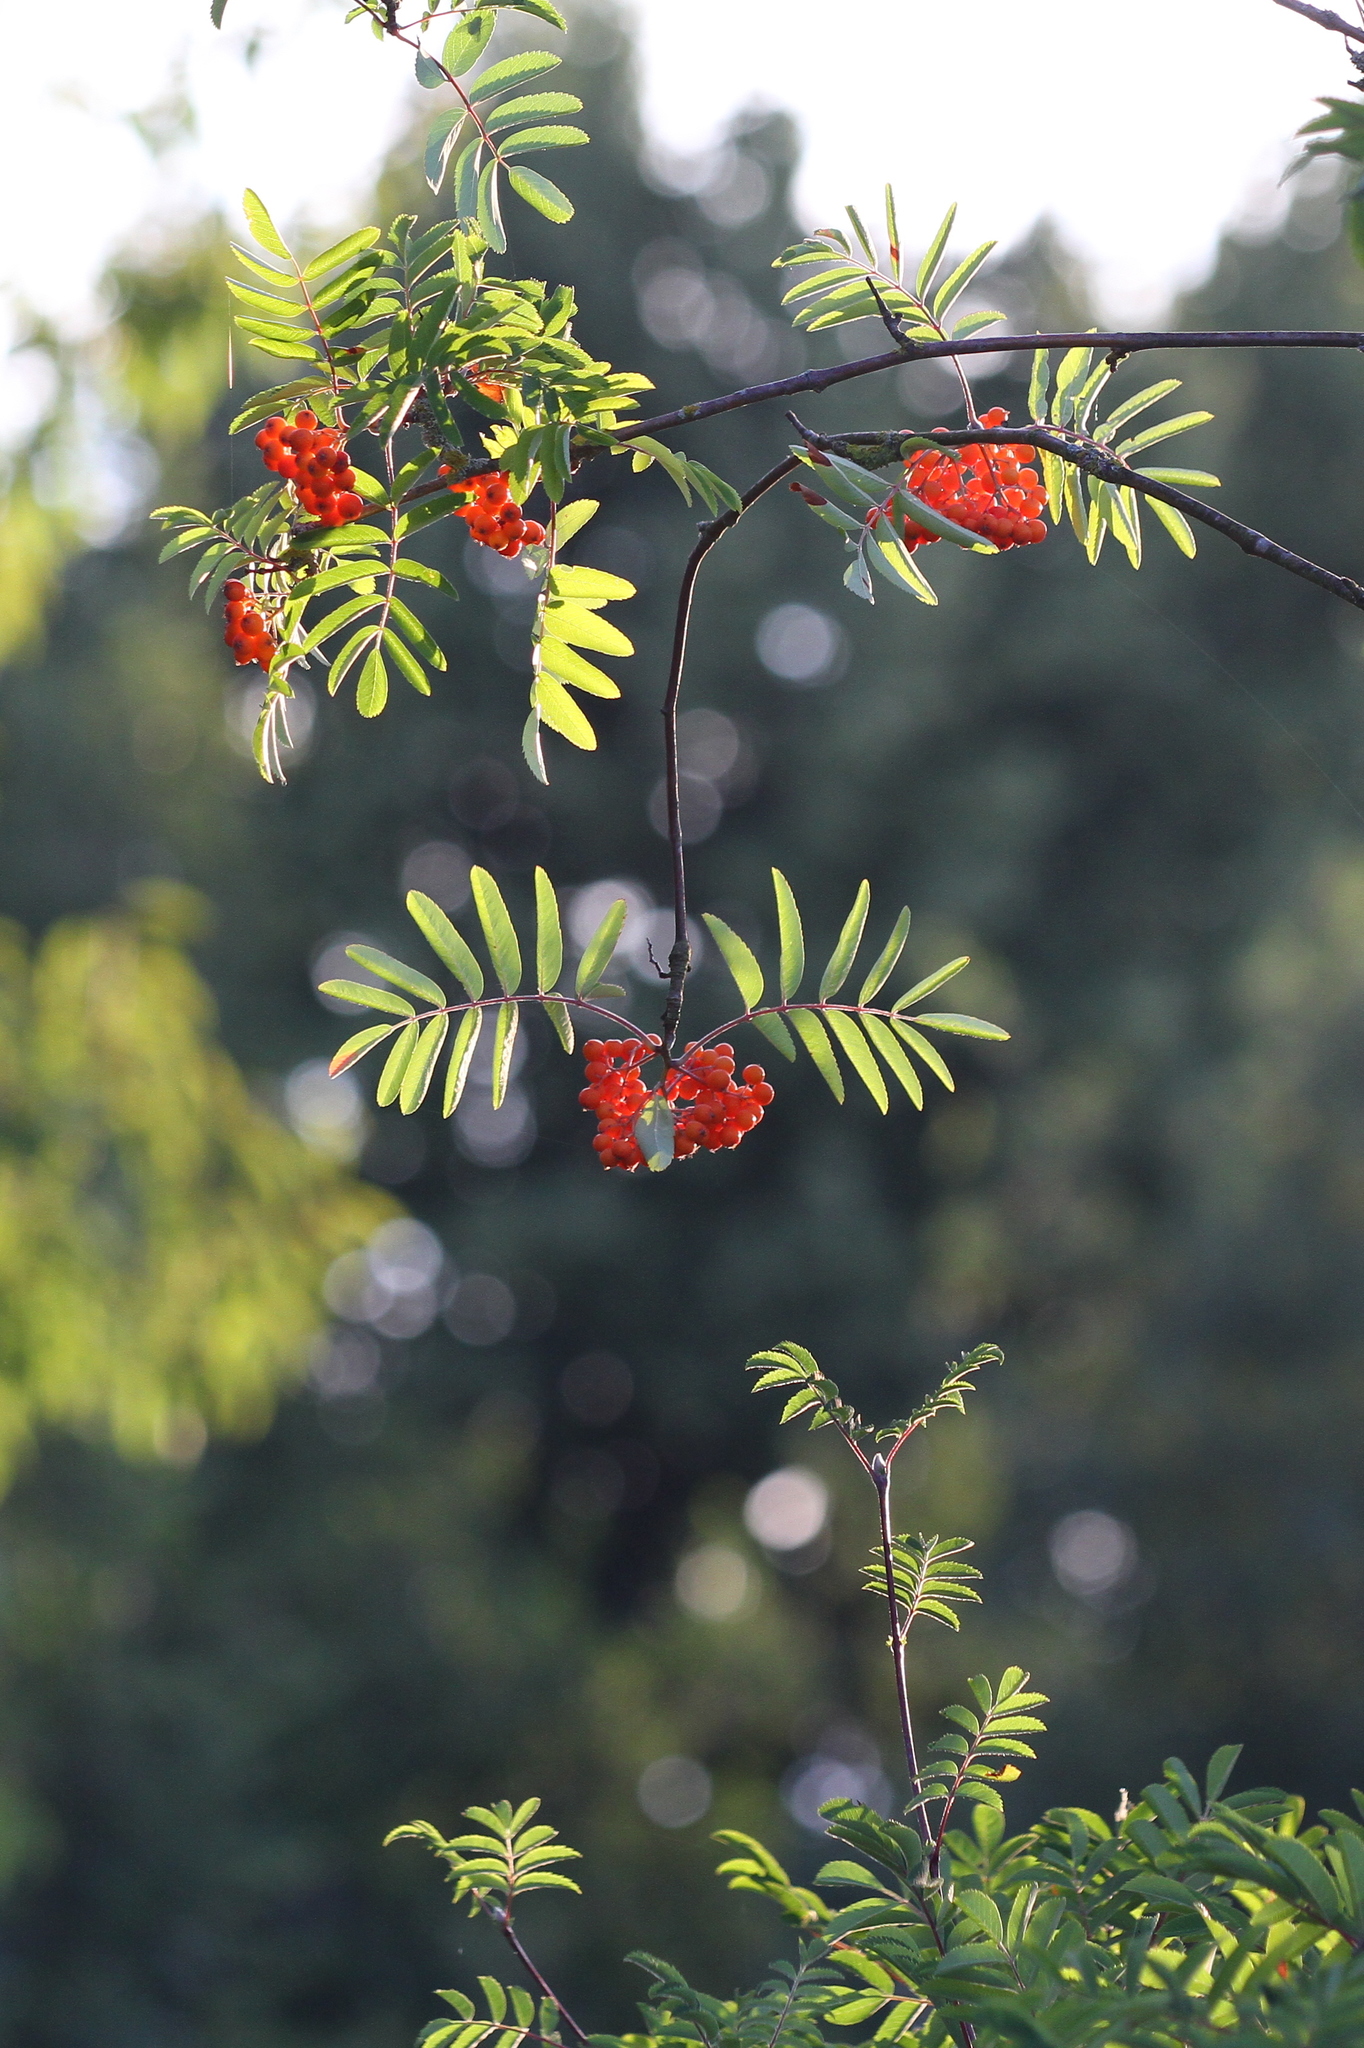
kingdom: Plantae
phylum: Tracheophyta
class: Magnoliopsida
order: Rosales
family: Rosaceae
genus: Sorbus
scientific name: Sorbus aucuparia
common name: Rowan
